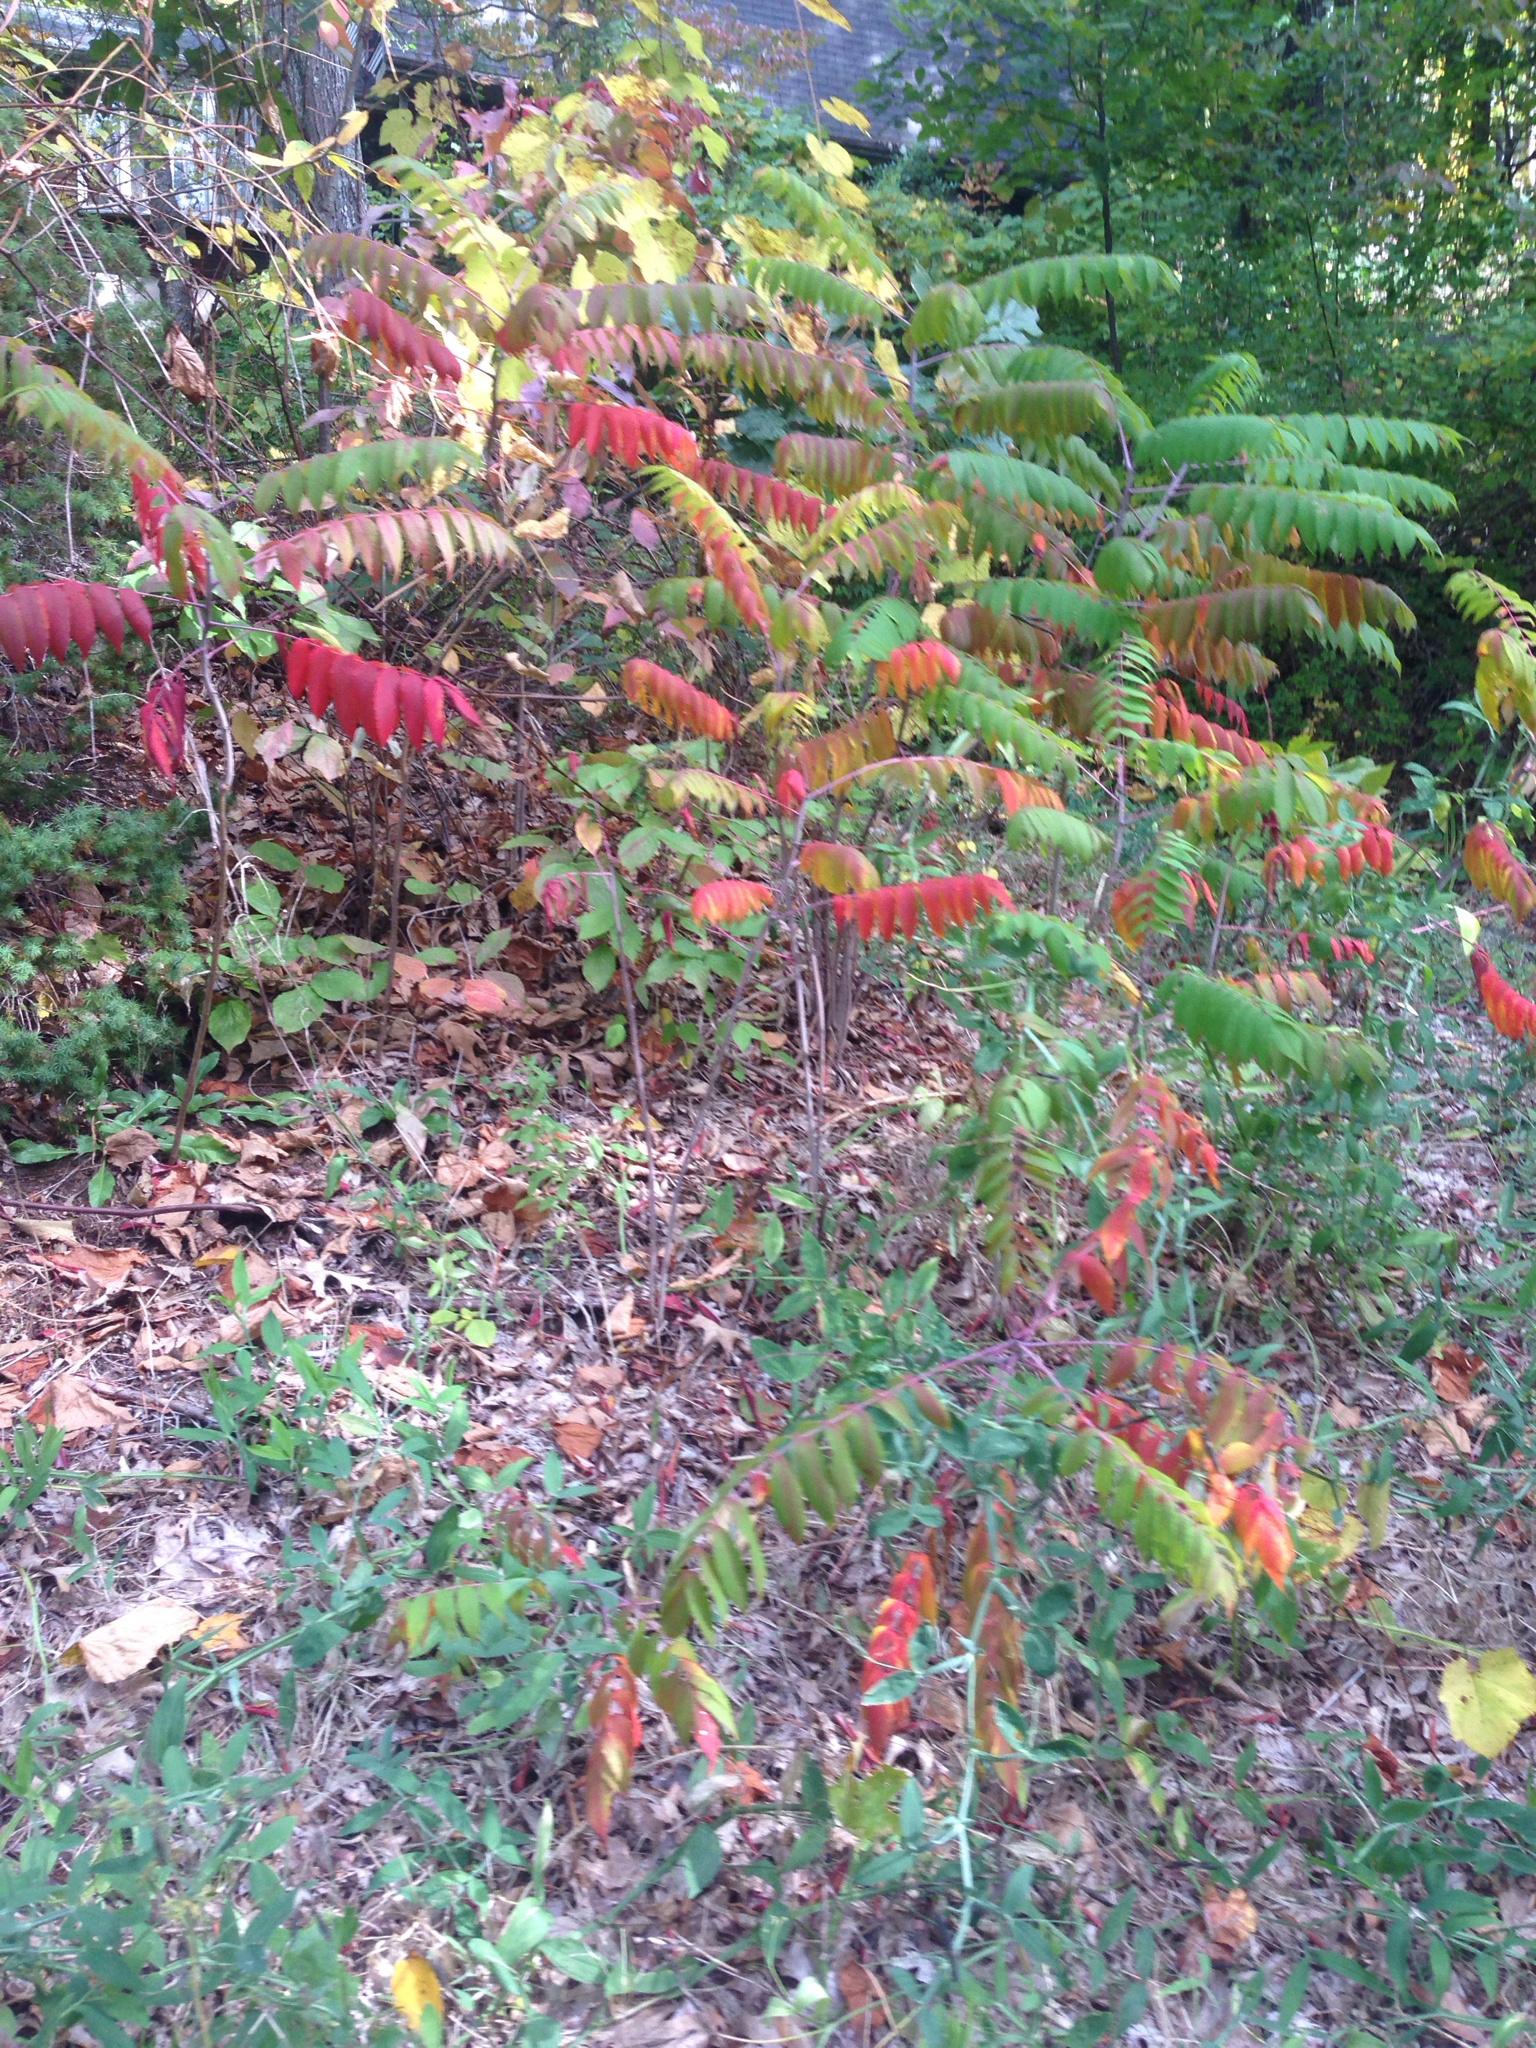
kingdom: Plantae
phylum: Tracheophyta
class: Magnoliopsida
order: Sapindales
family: Anacardiaceae
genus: Rhus
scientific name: Rhus typhina
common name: Staghorn sumac
